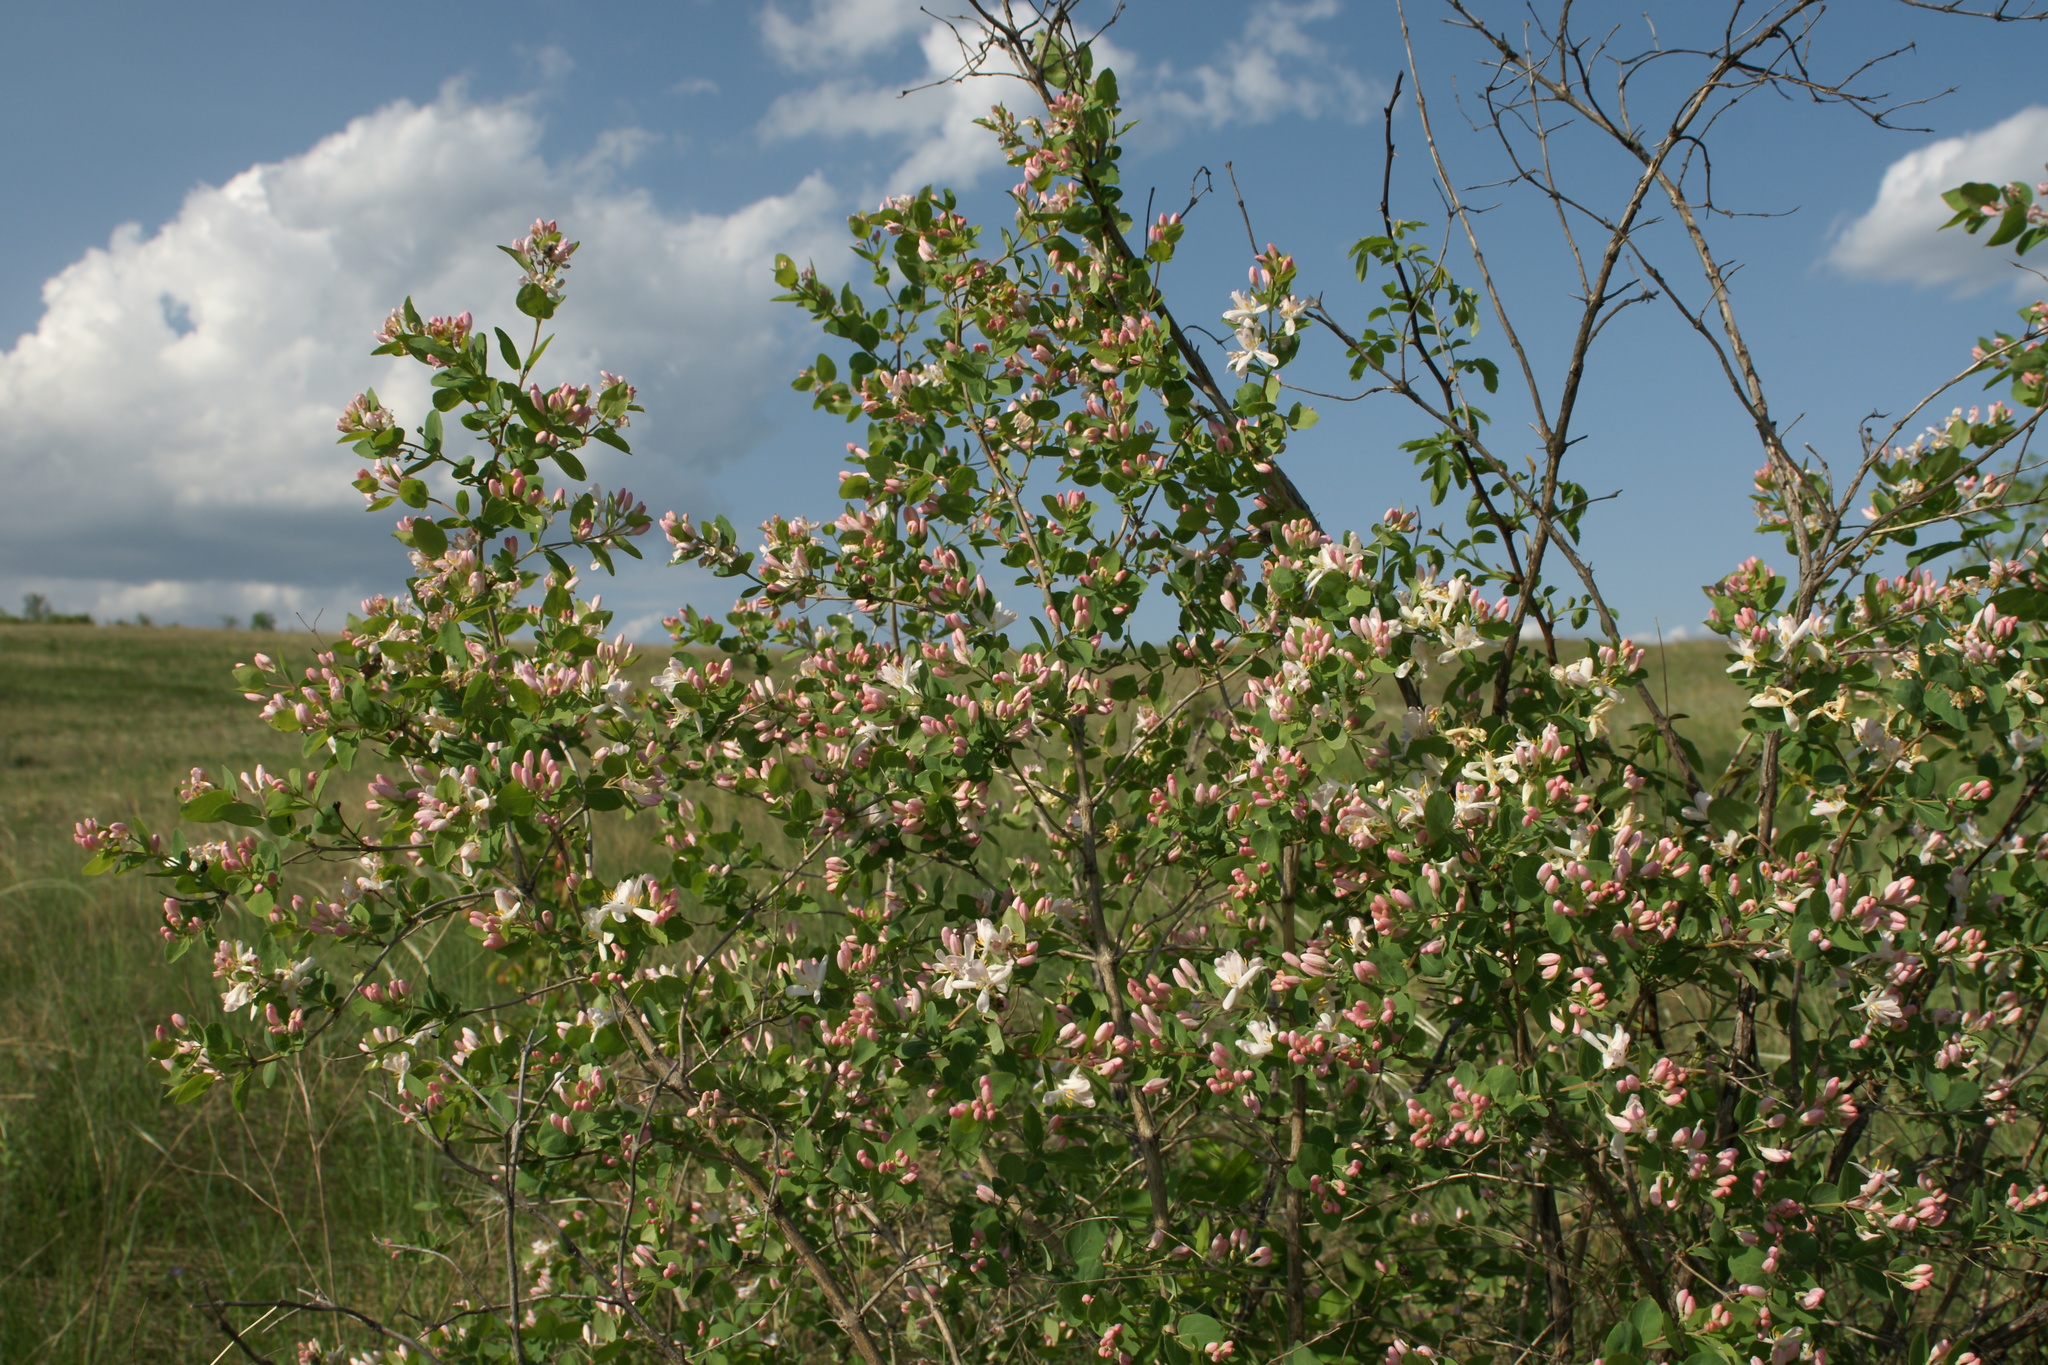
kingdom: Plantae
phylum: Tracheophyta
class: Magnoliopsida
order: Dipsacales
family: Caprifoliaceae
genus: Lonicera
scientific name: Lonicera tatarica
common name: Tatarian honeysuckle
